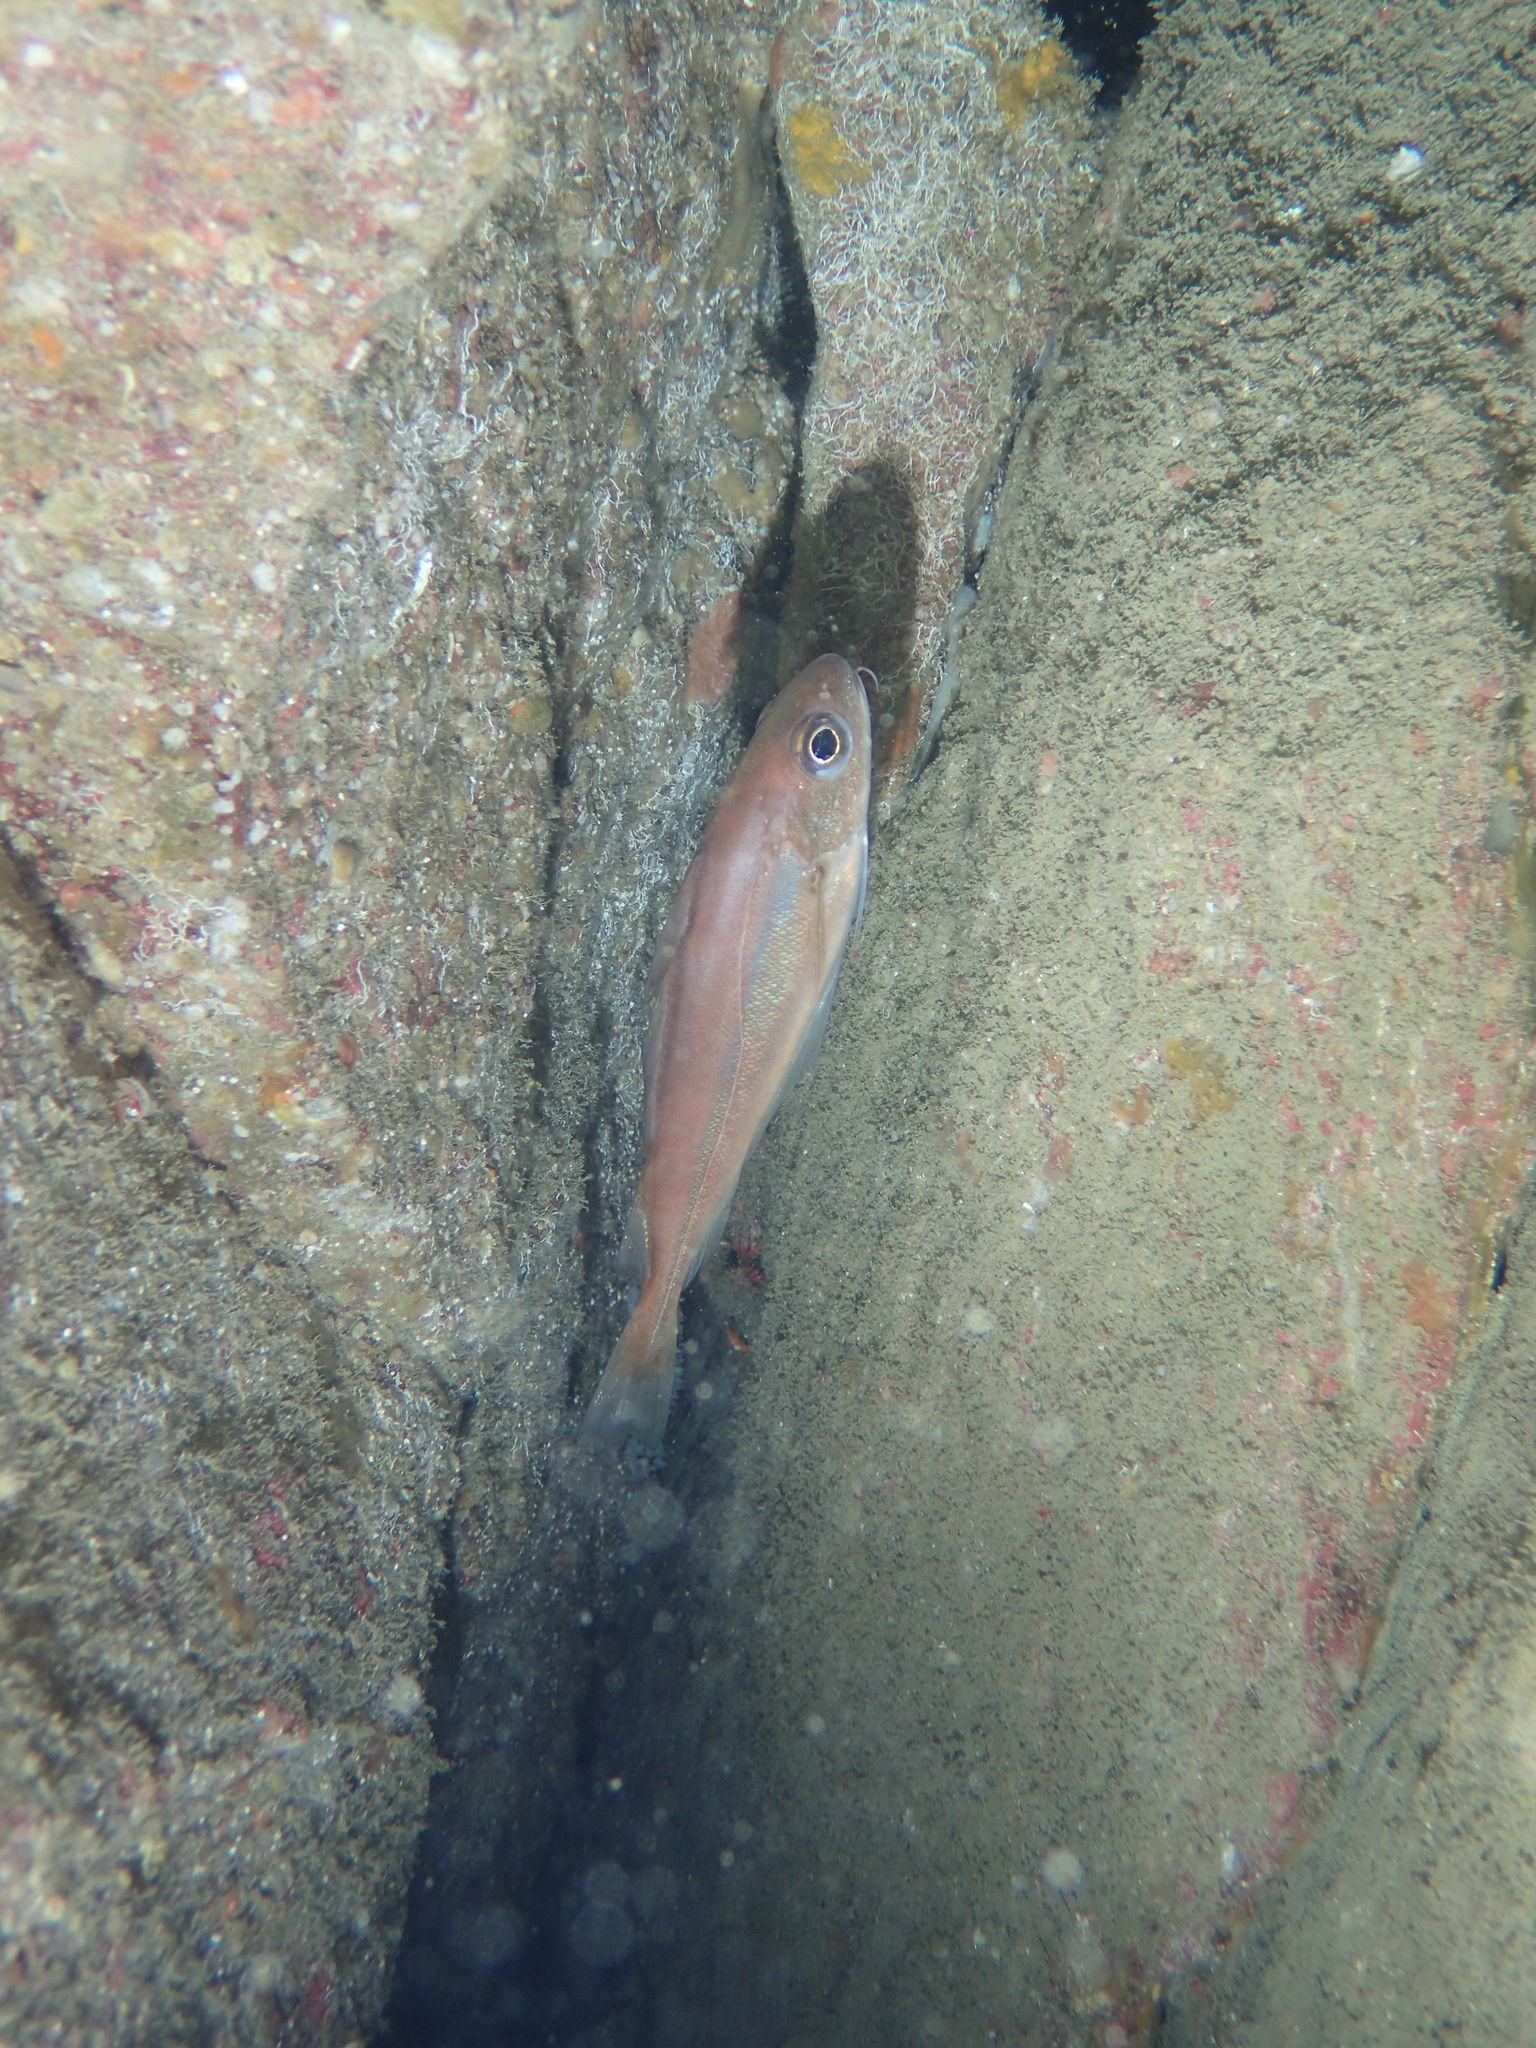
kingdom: Animalia
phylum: Chordata
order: Gadiformes
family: Gadidae
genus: Trisopterus
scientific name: Trisopterus minutus
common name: Poor cod
